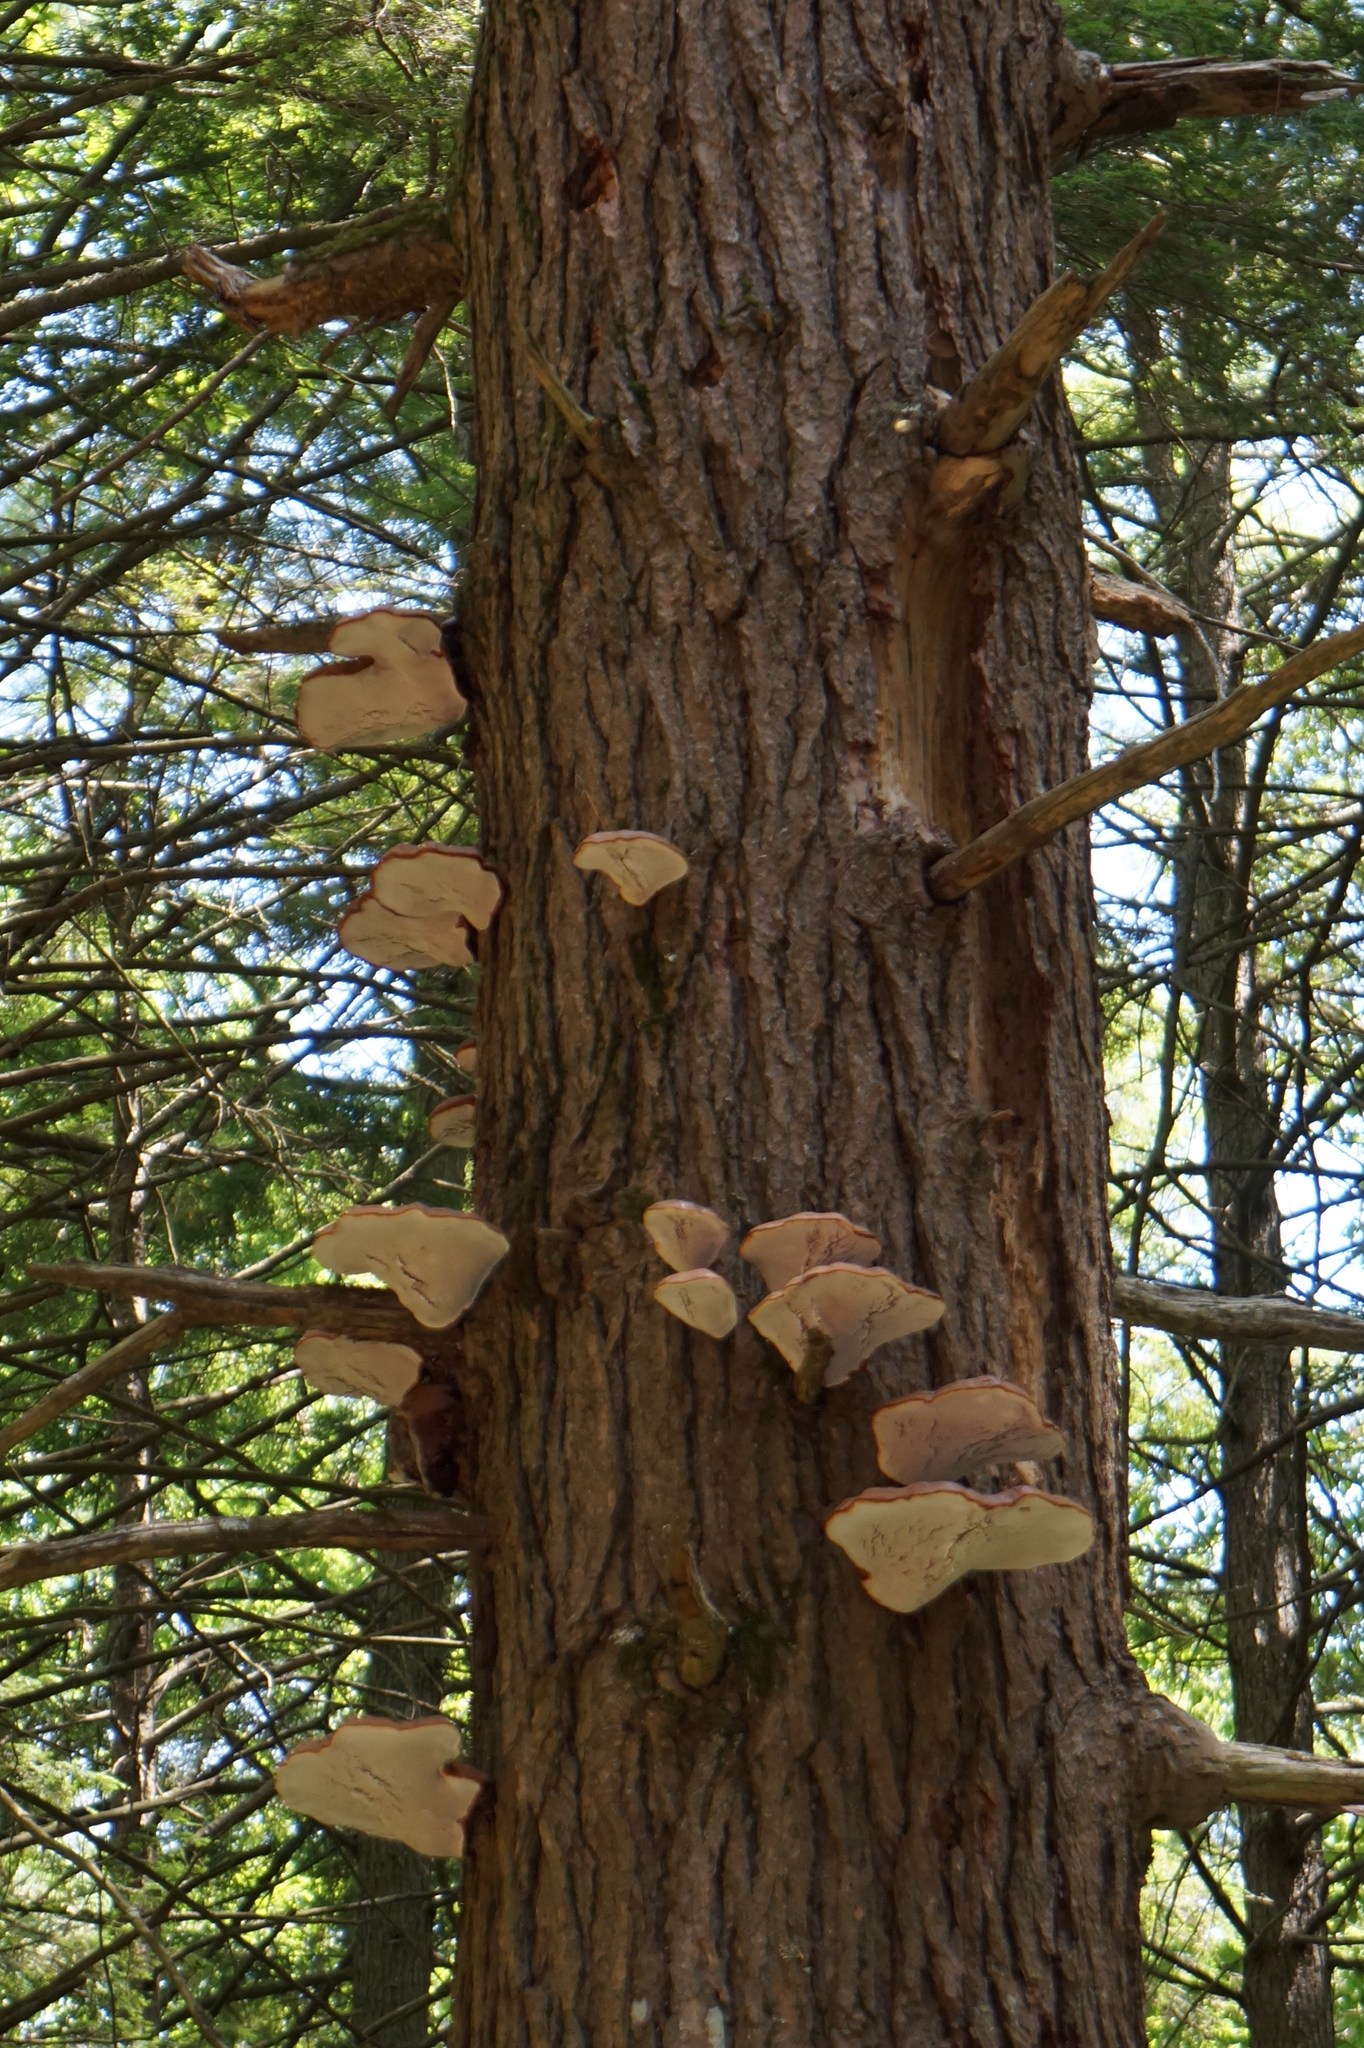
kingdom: Fungi
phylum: Basidiomycota
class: Agaricomycetes
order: Polyporales
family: Polyporaceae
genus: Ganoderma
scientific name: Ganoderma tsugae
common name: Hemlock varnish shelf
